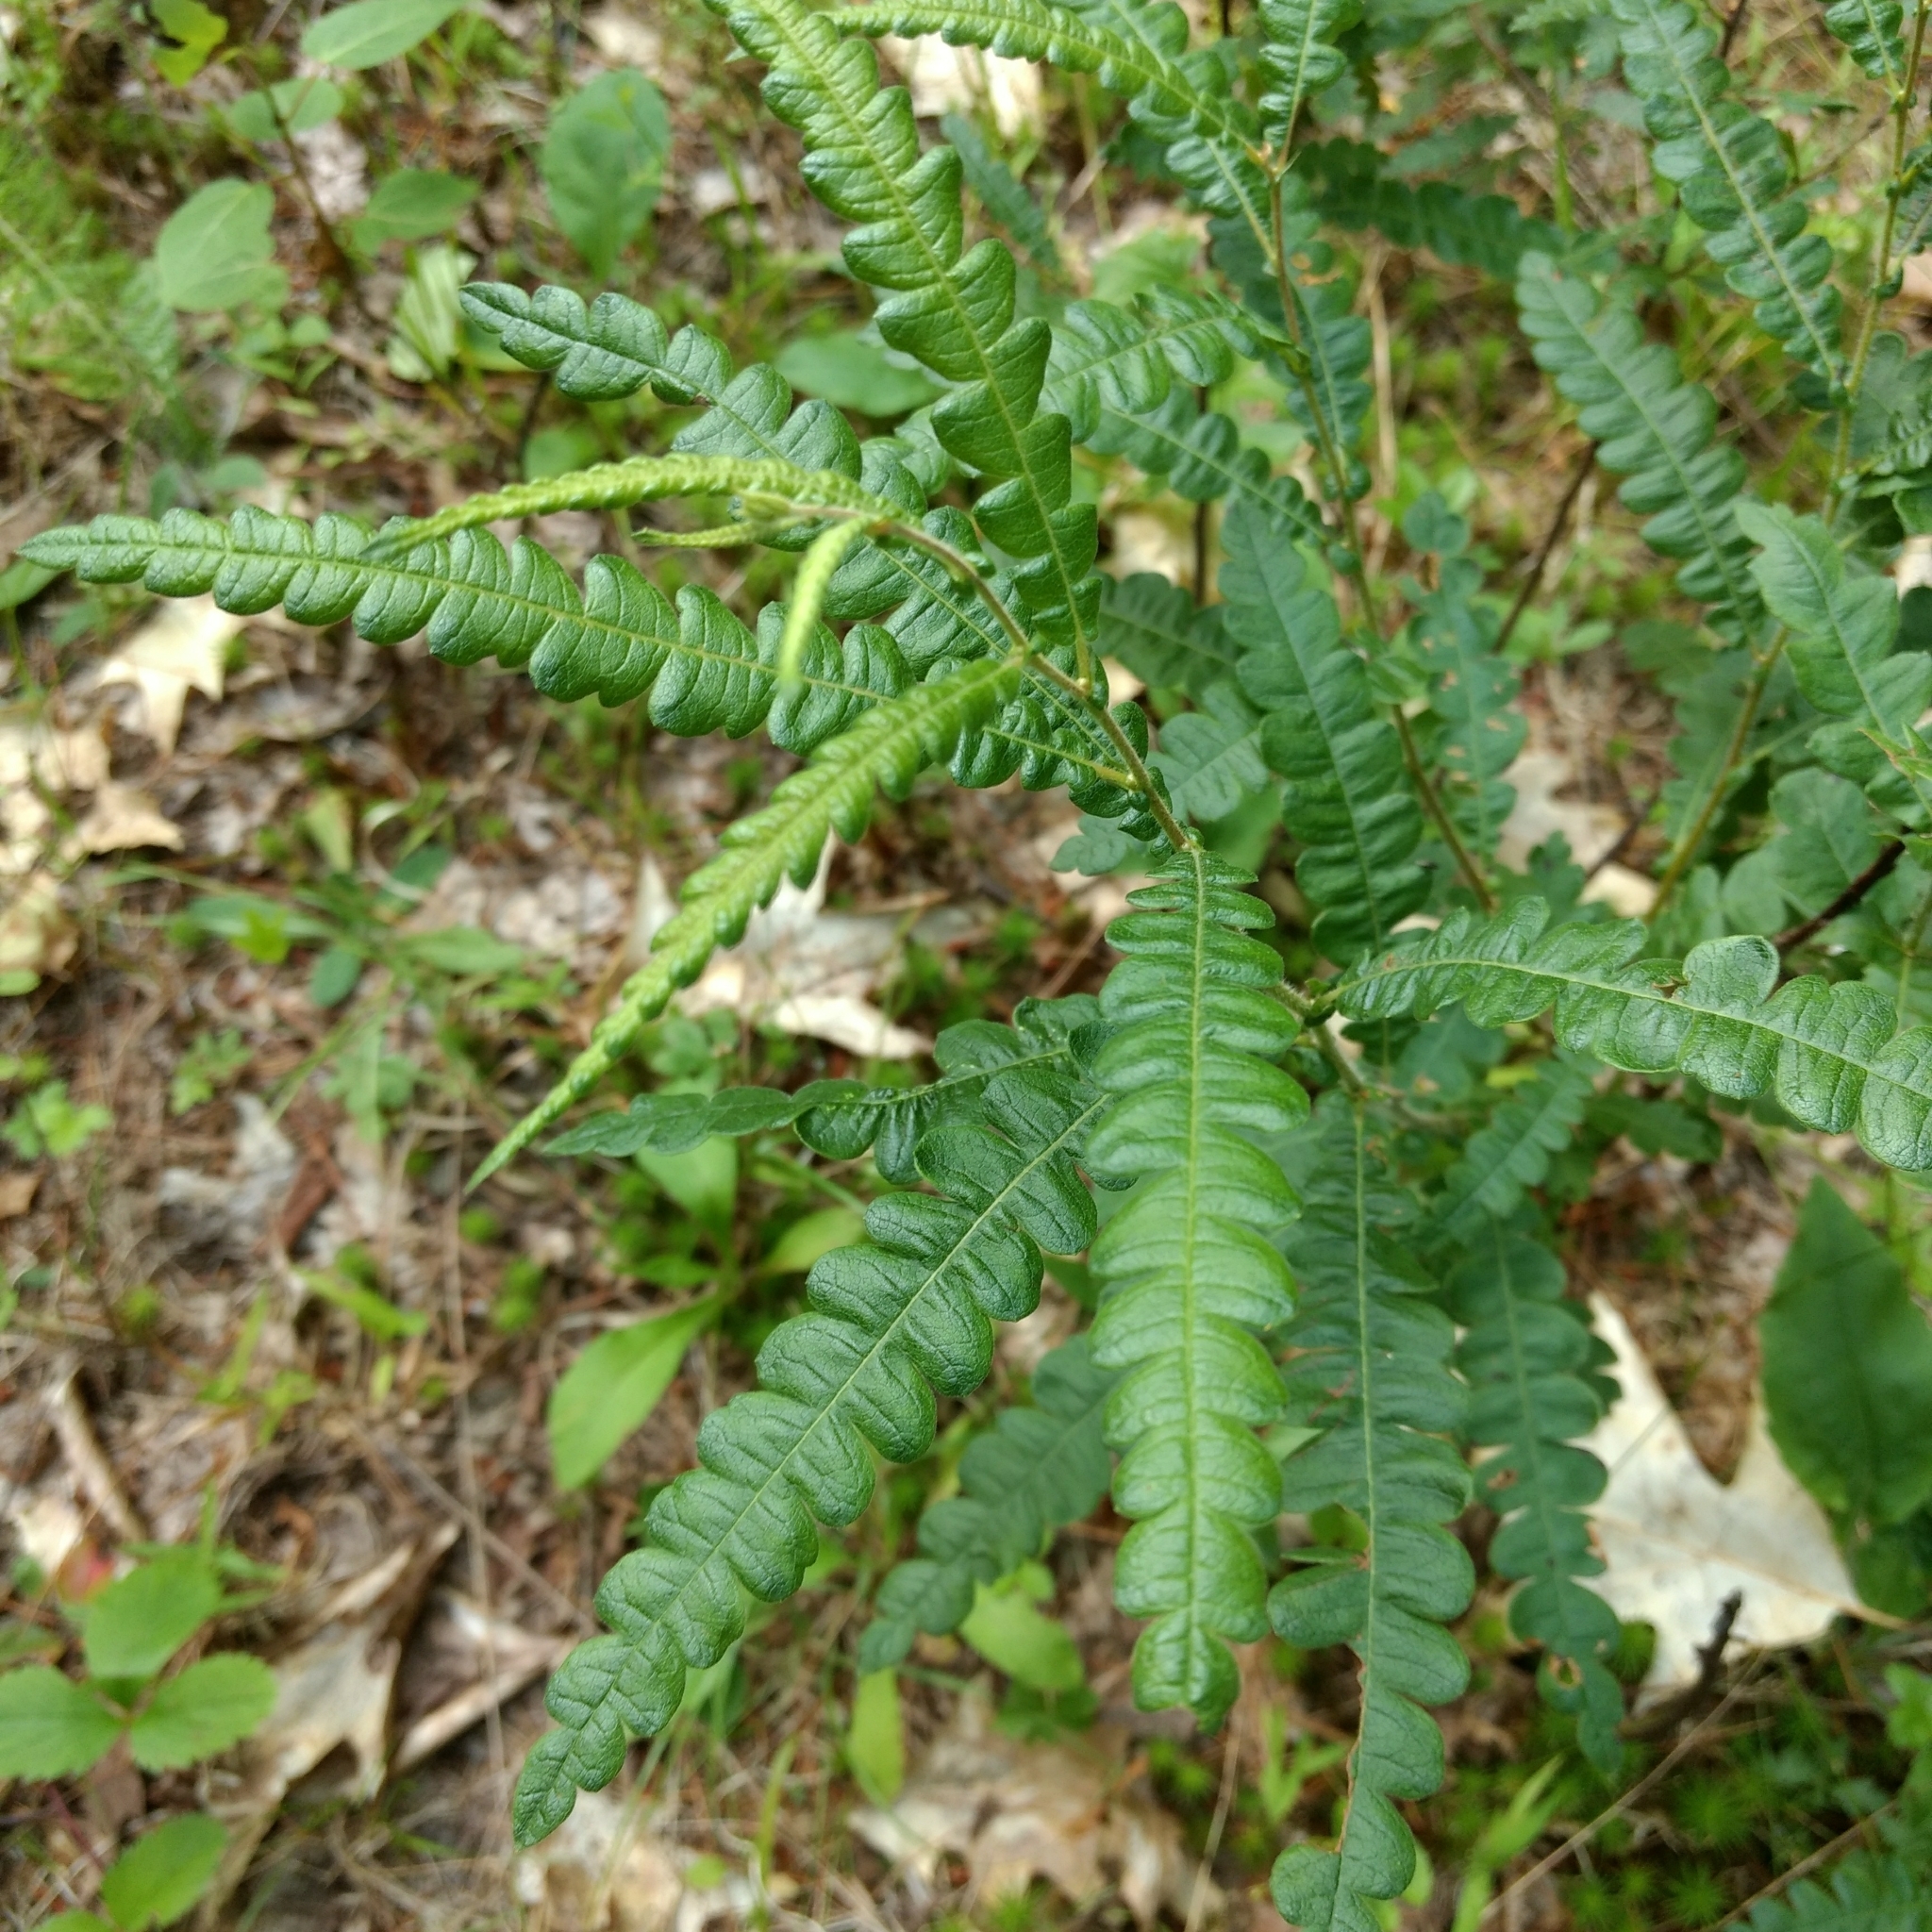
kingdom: Plantae
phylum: Tracheophyta
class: Magnoliopsida
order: Fagales
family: Myricaceae
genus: Comptonia
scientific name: Comptonia peregrina
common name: Sweet-fern
